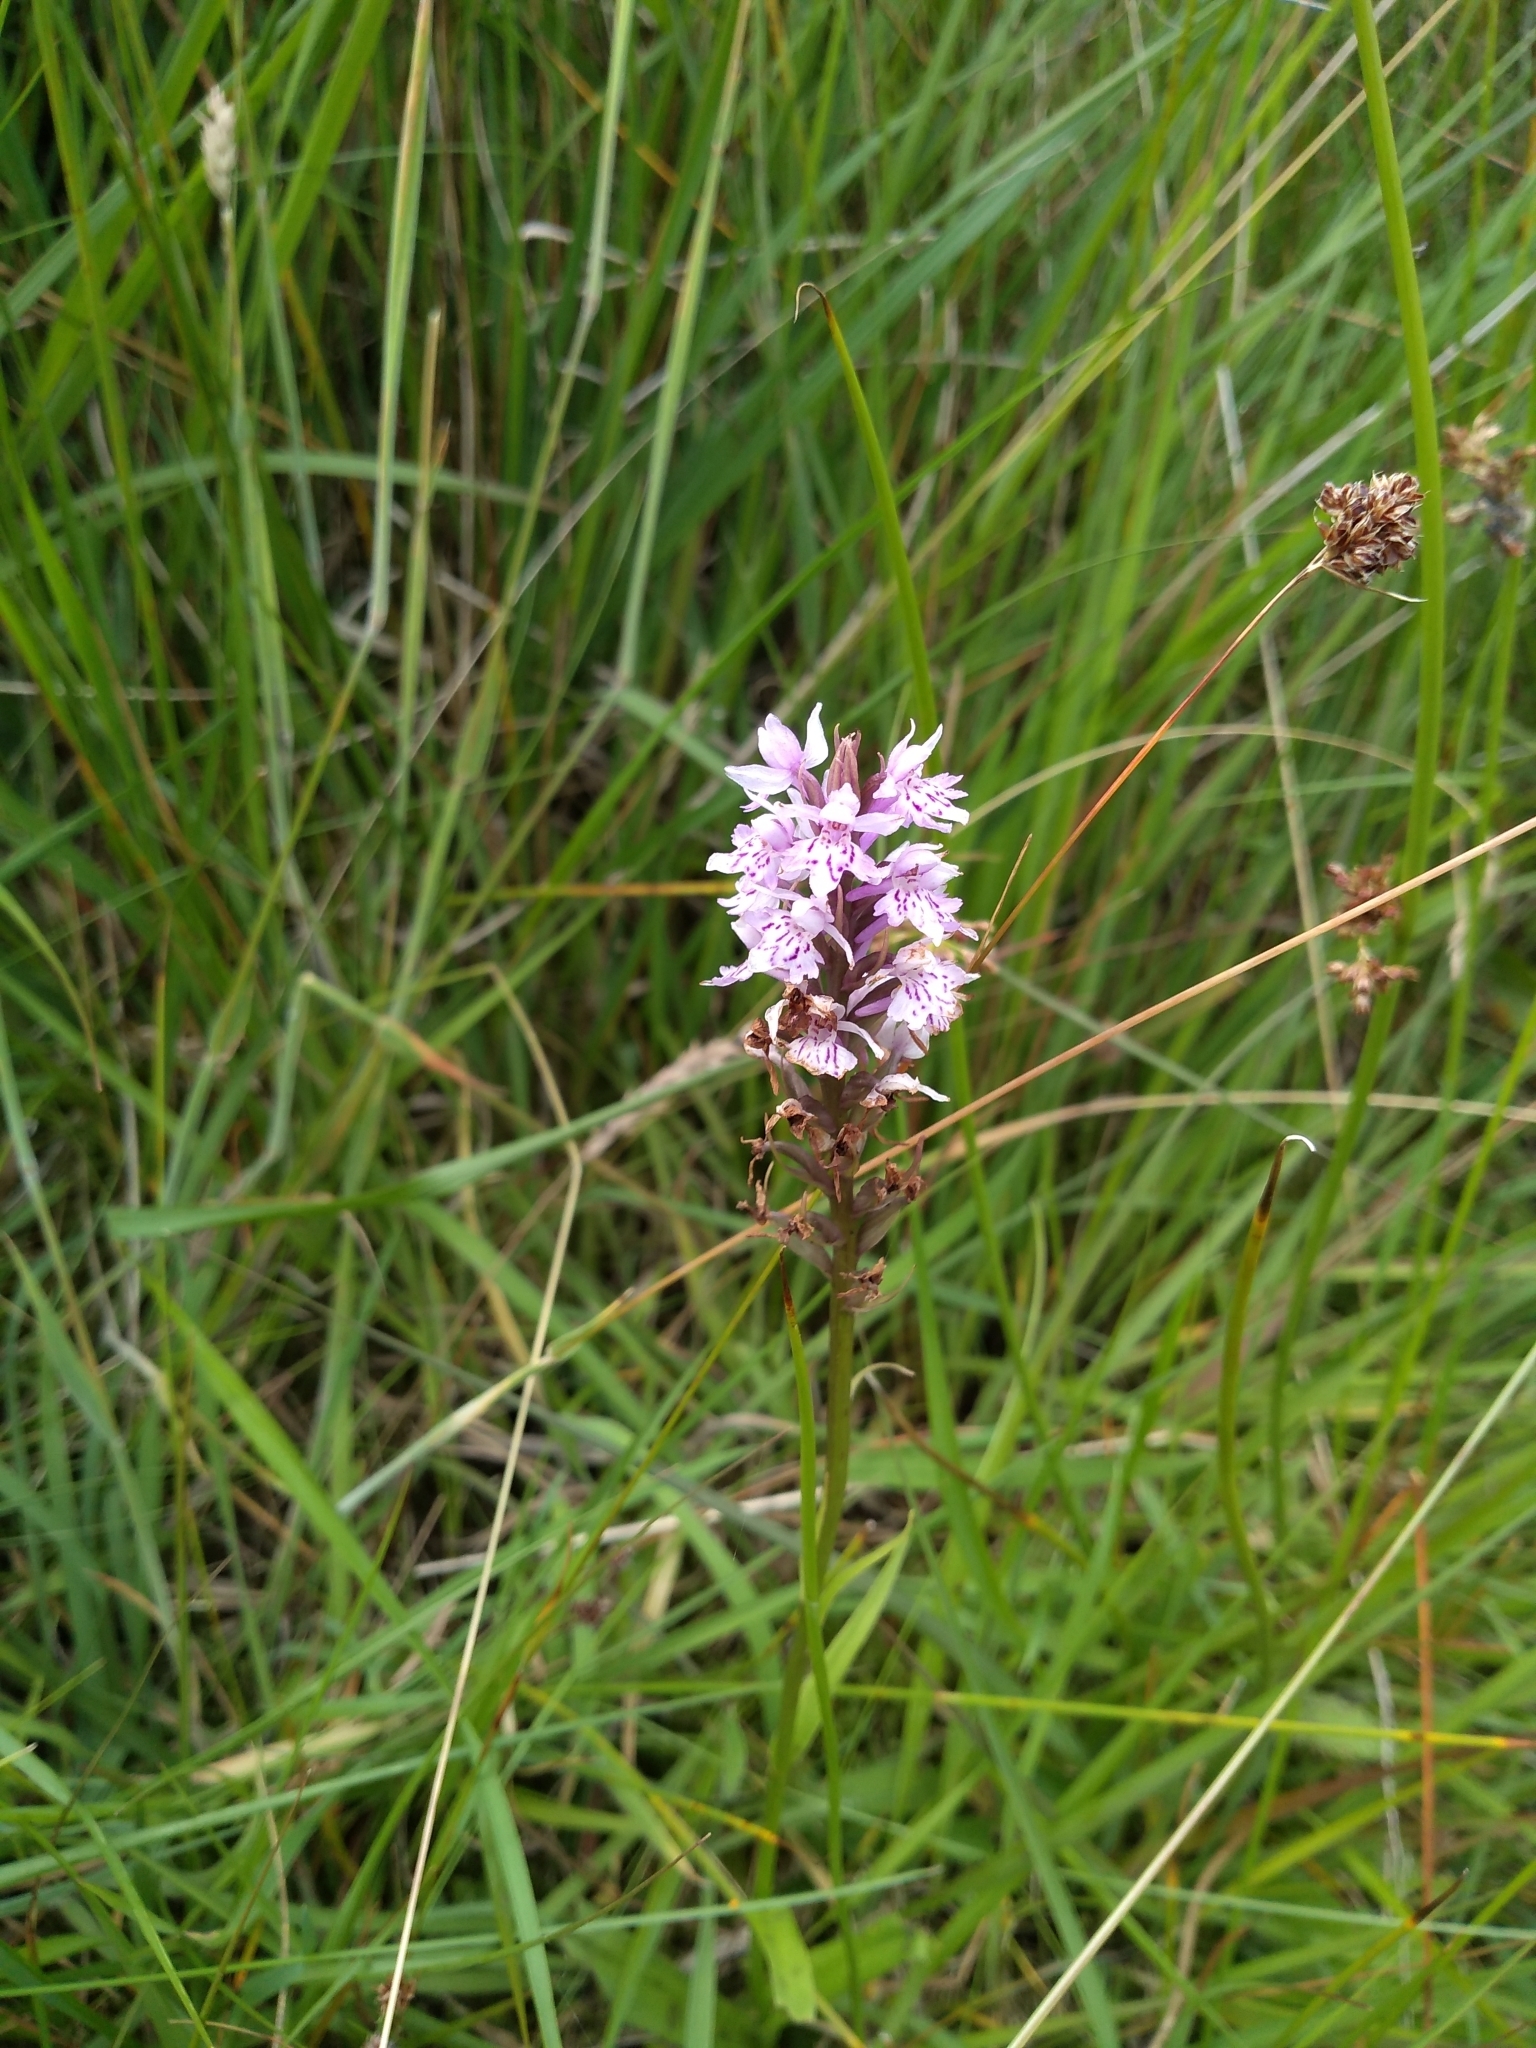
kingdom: Plantae
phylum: Tracheophyta
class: Liliopsida
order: Asparagales
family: Orchidaceae
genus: Dactylorhiza
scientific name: Dactylorhiza maculata
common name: Heath spotted-orchid
